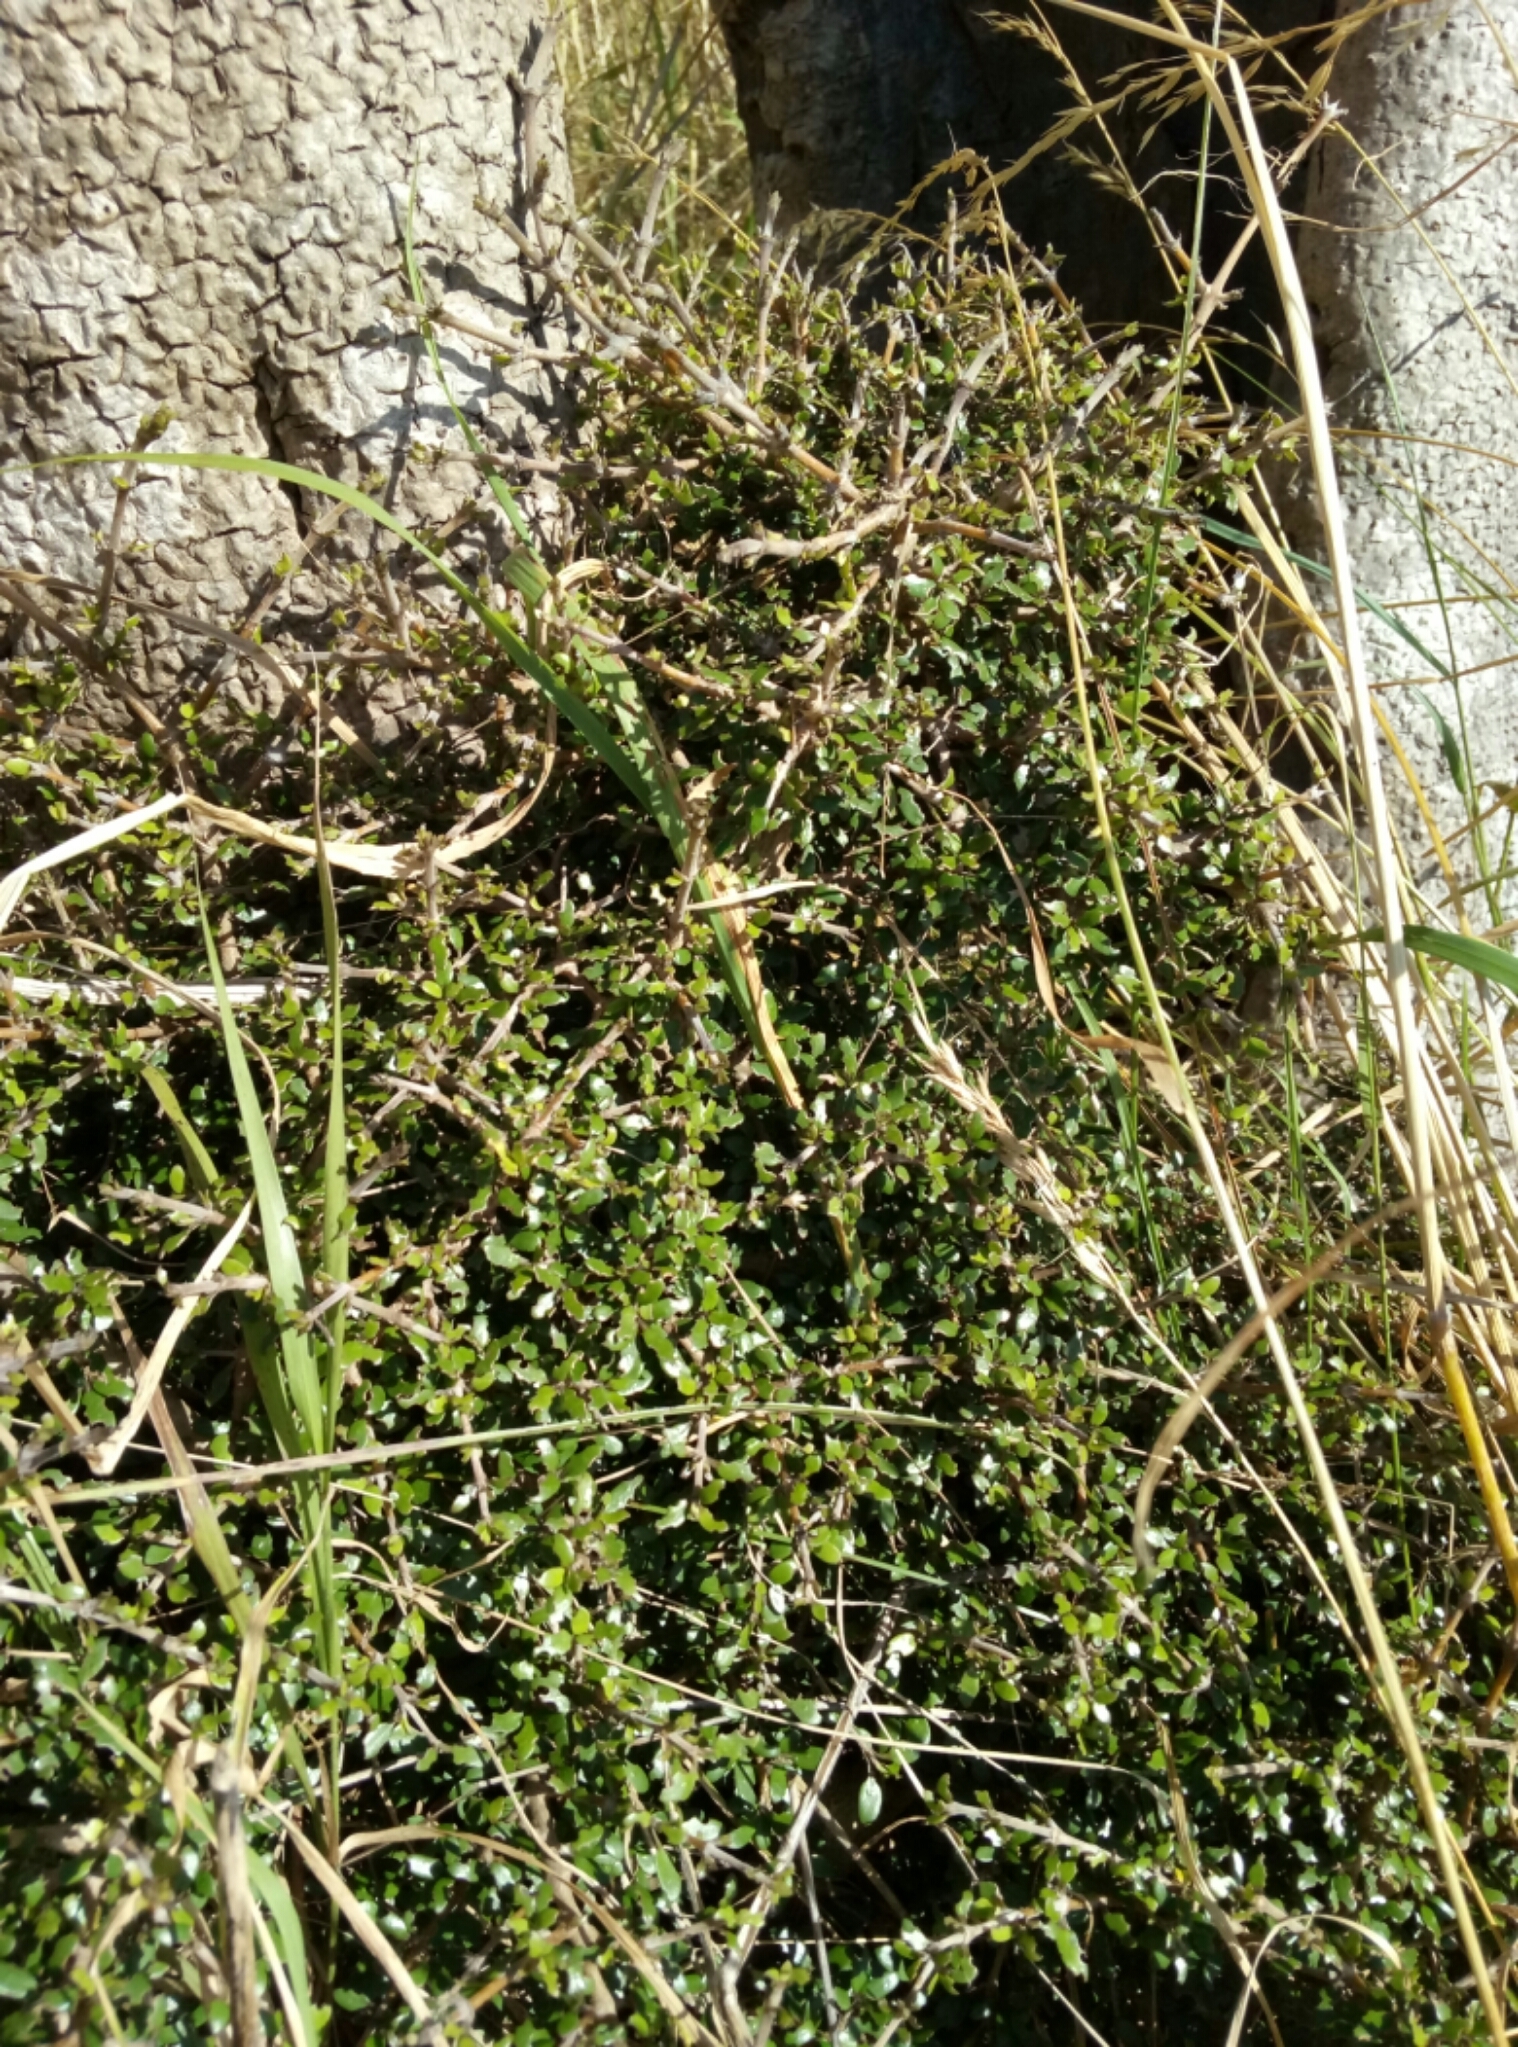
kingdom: Plantae
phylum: Tracheophyta
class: Magnoliopsida
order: Gentianales
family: Rubiaceae
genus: Coprosma
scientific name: Coprosma propinqua
